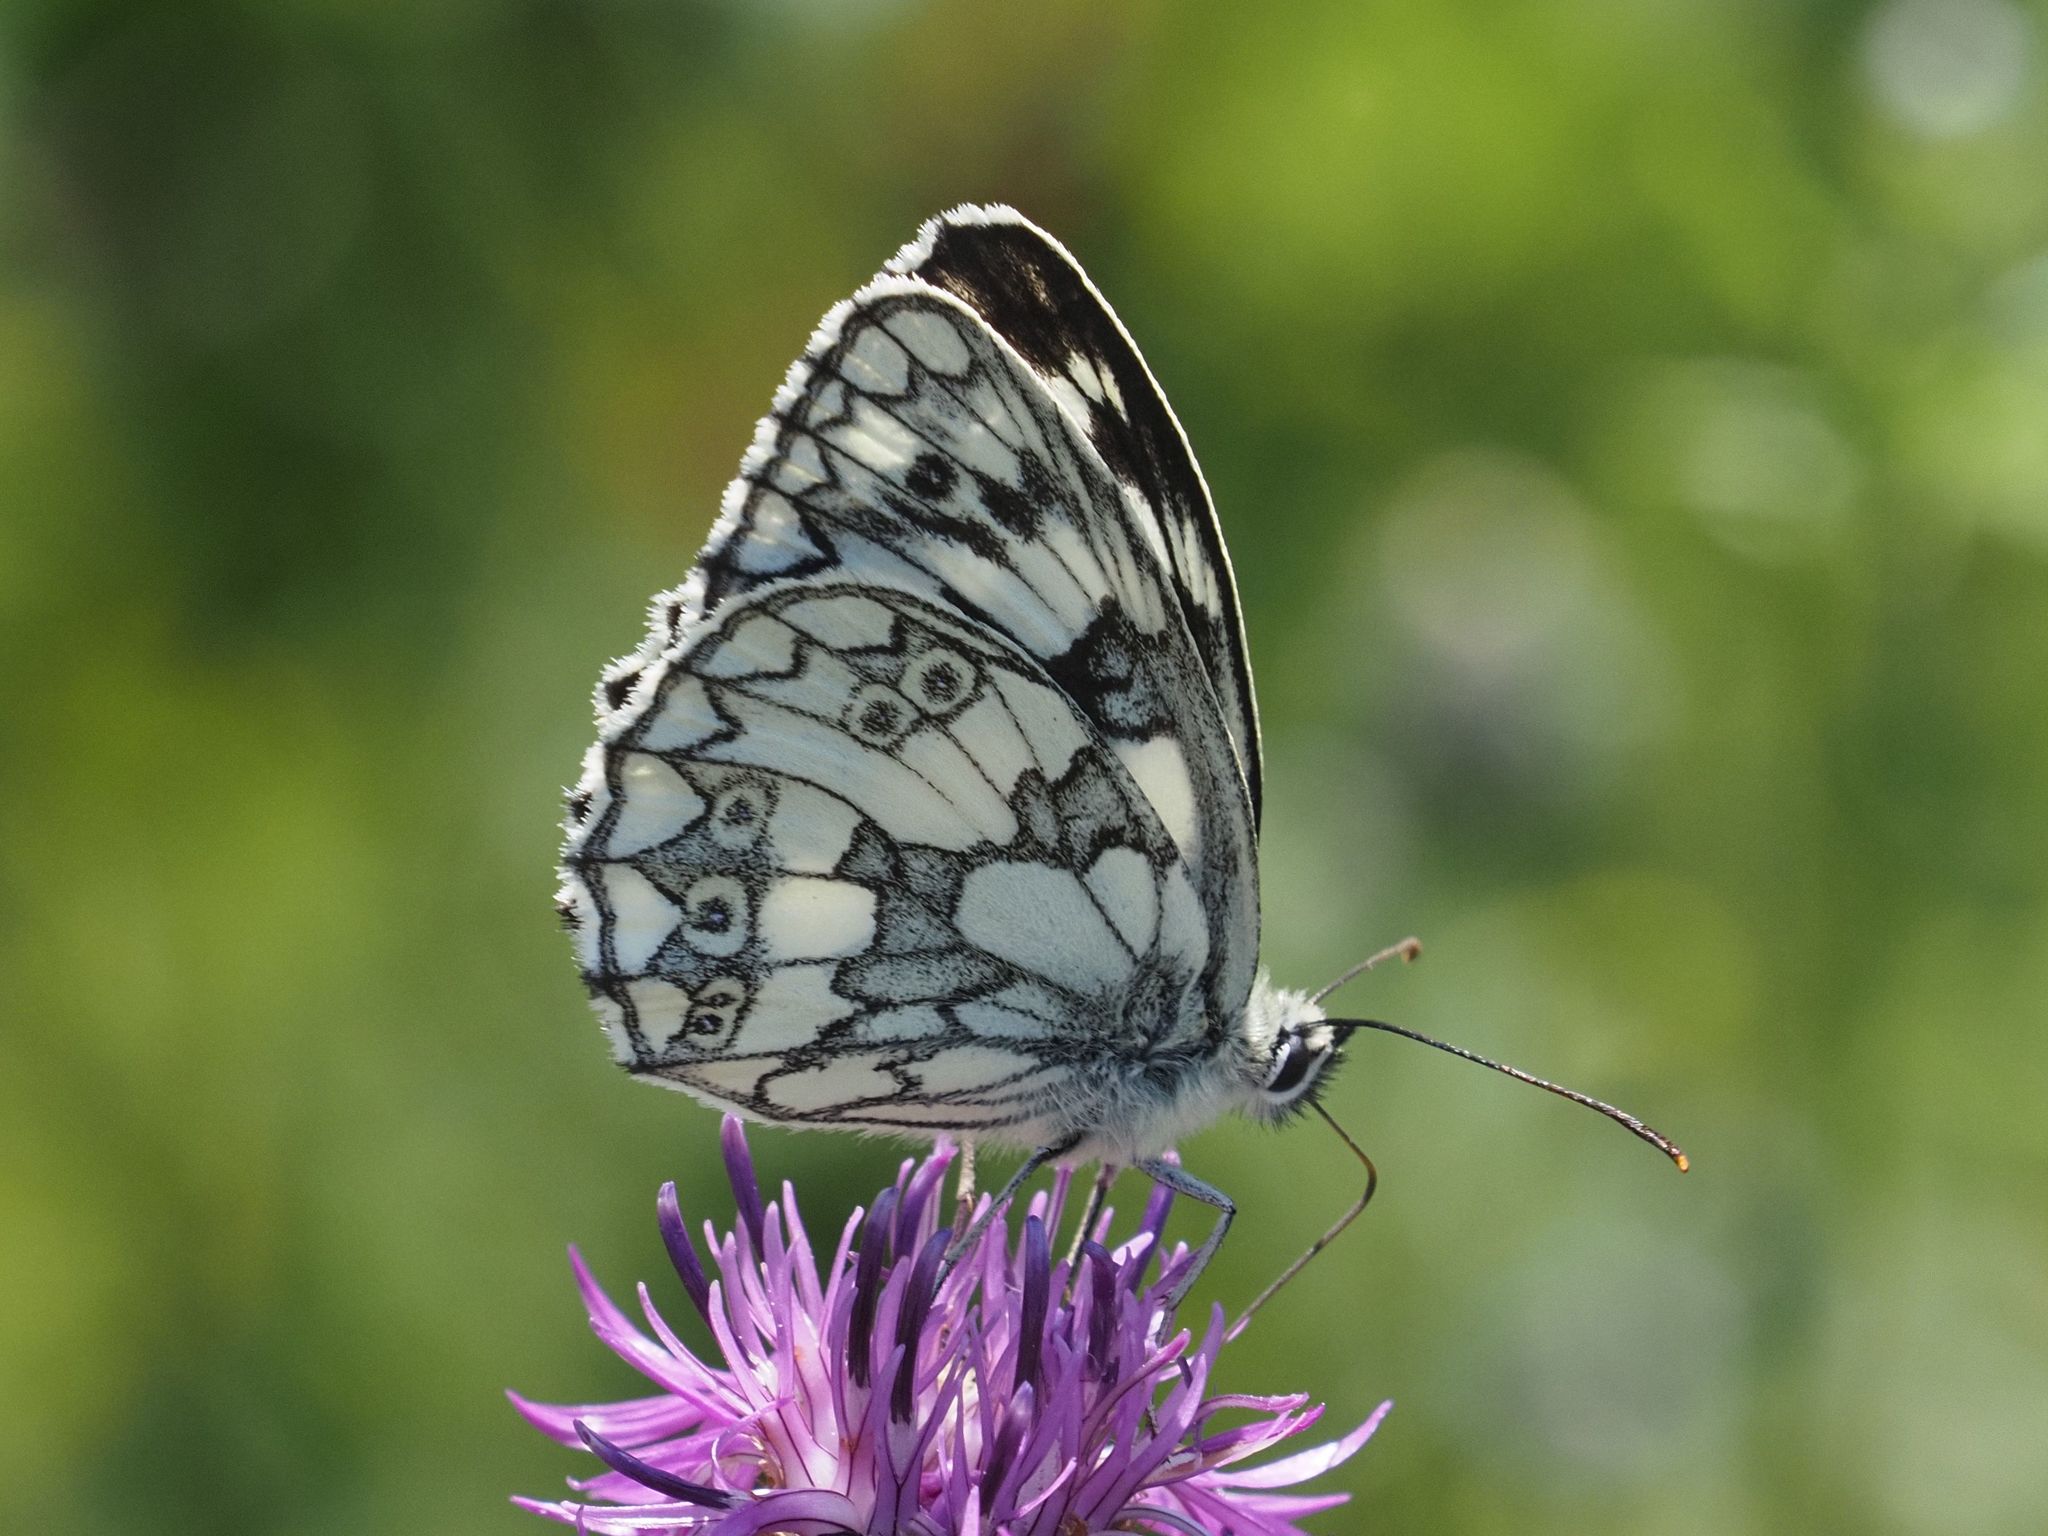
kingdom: Animalia
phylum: Arthropoda
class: Insecta
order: Lepidoptera
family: Nymphalidae
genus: Melanargia
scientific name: Melanargia galathea
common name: Marbled white
